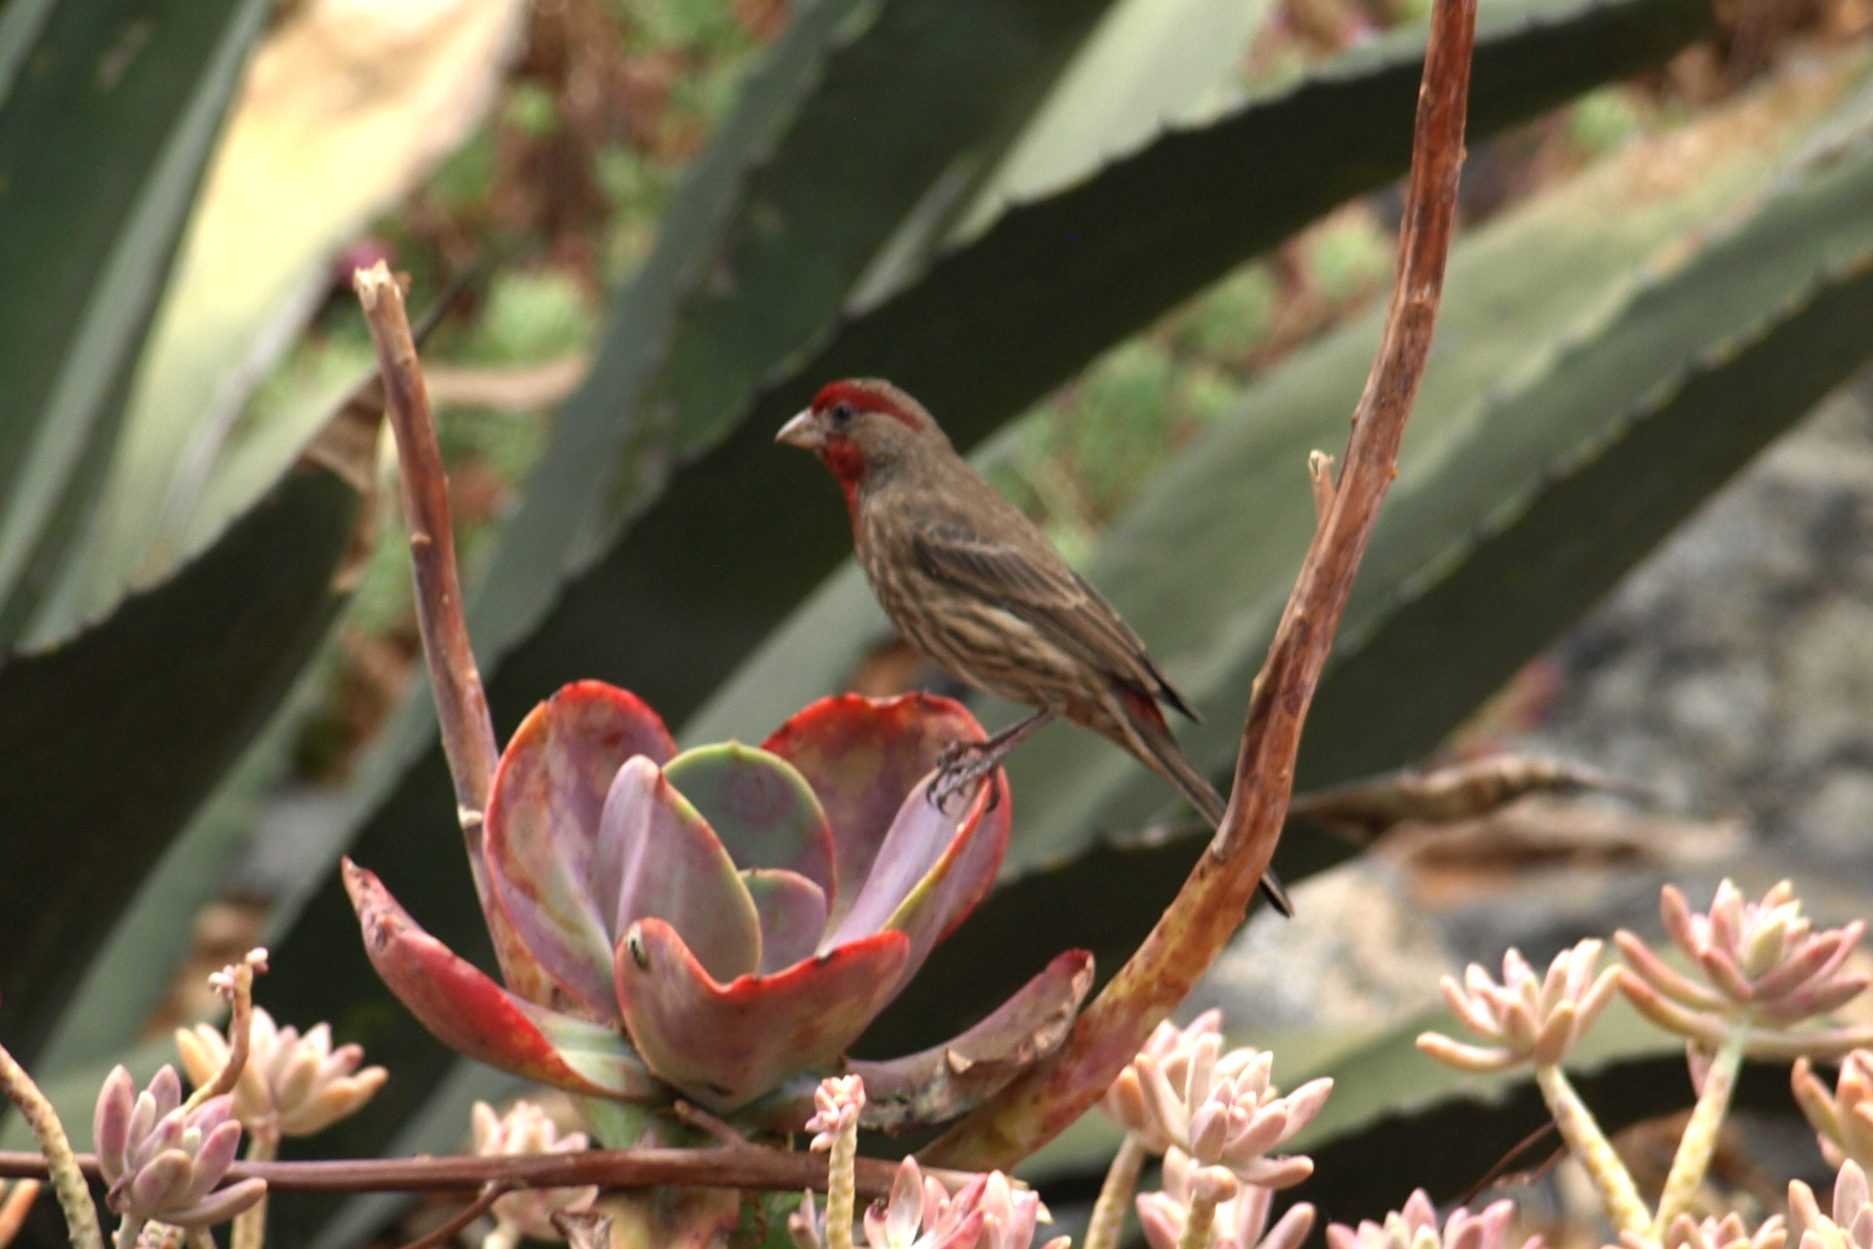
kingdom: Animalia
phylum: Chordata
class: Aves
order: Passeriformes
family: Fringillidae
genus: Haemorhous
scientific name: Haemorhous mexicanus
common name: House finch
